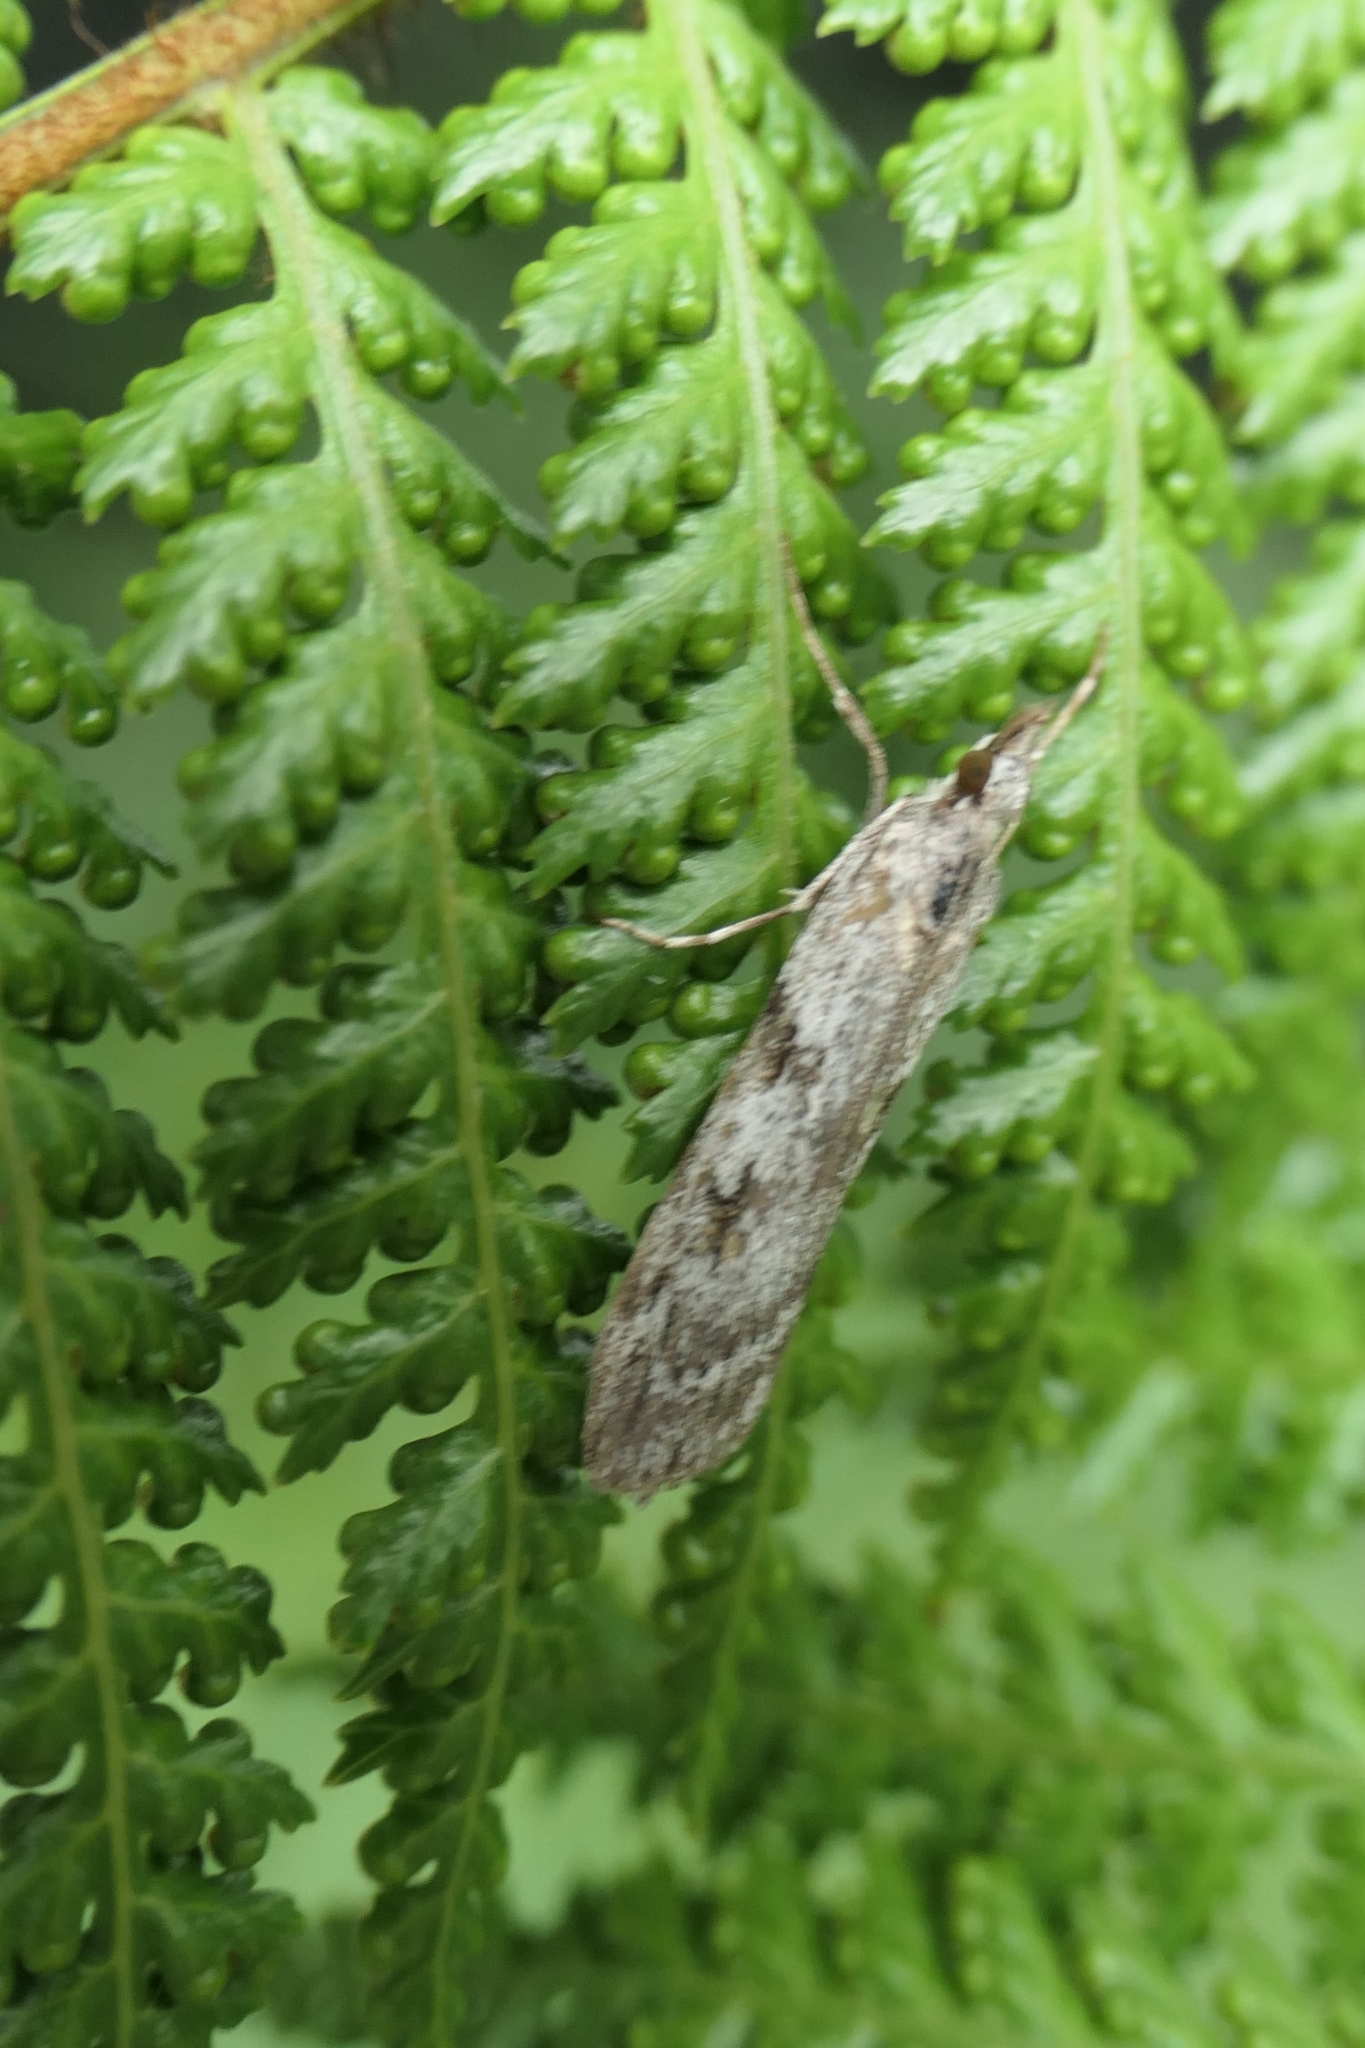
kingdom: Animalia
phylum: Arthropoda
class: Insecta
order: Lepidoptera
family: Crambidae
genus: Scoparia
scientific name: Scoparia halopis
